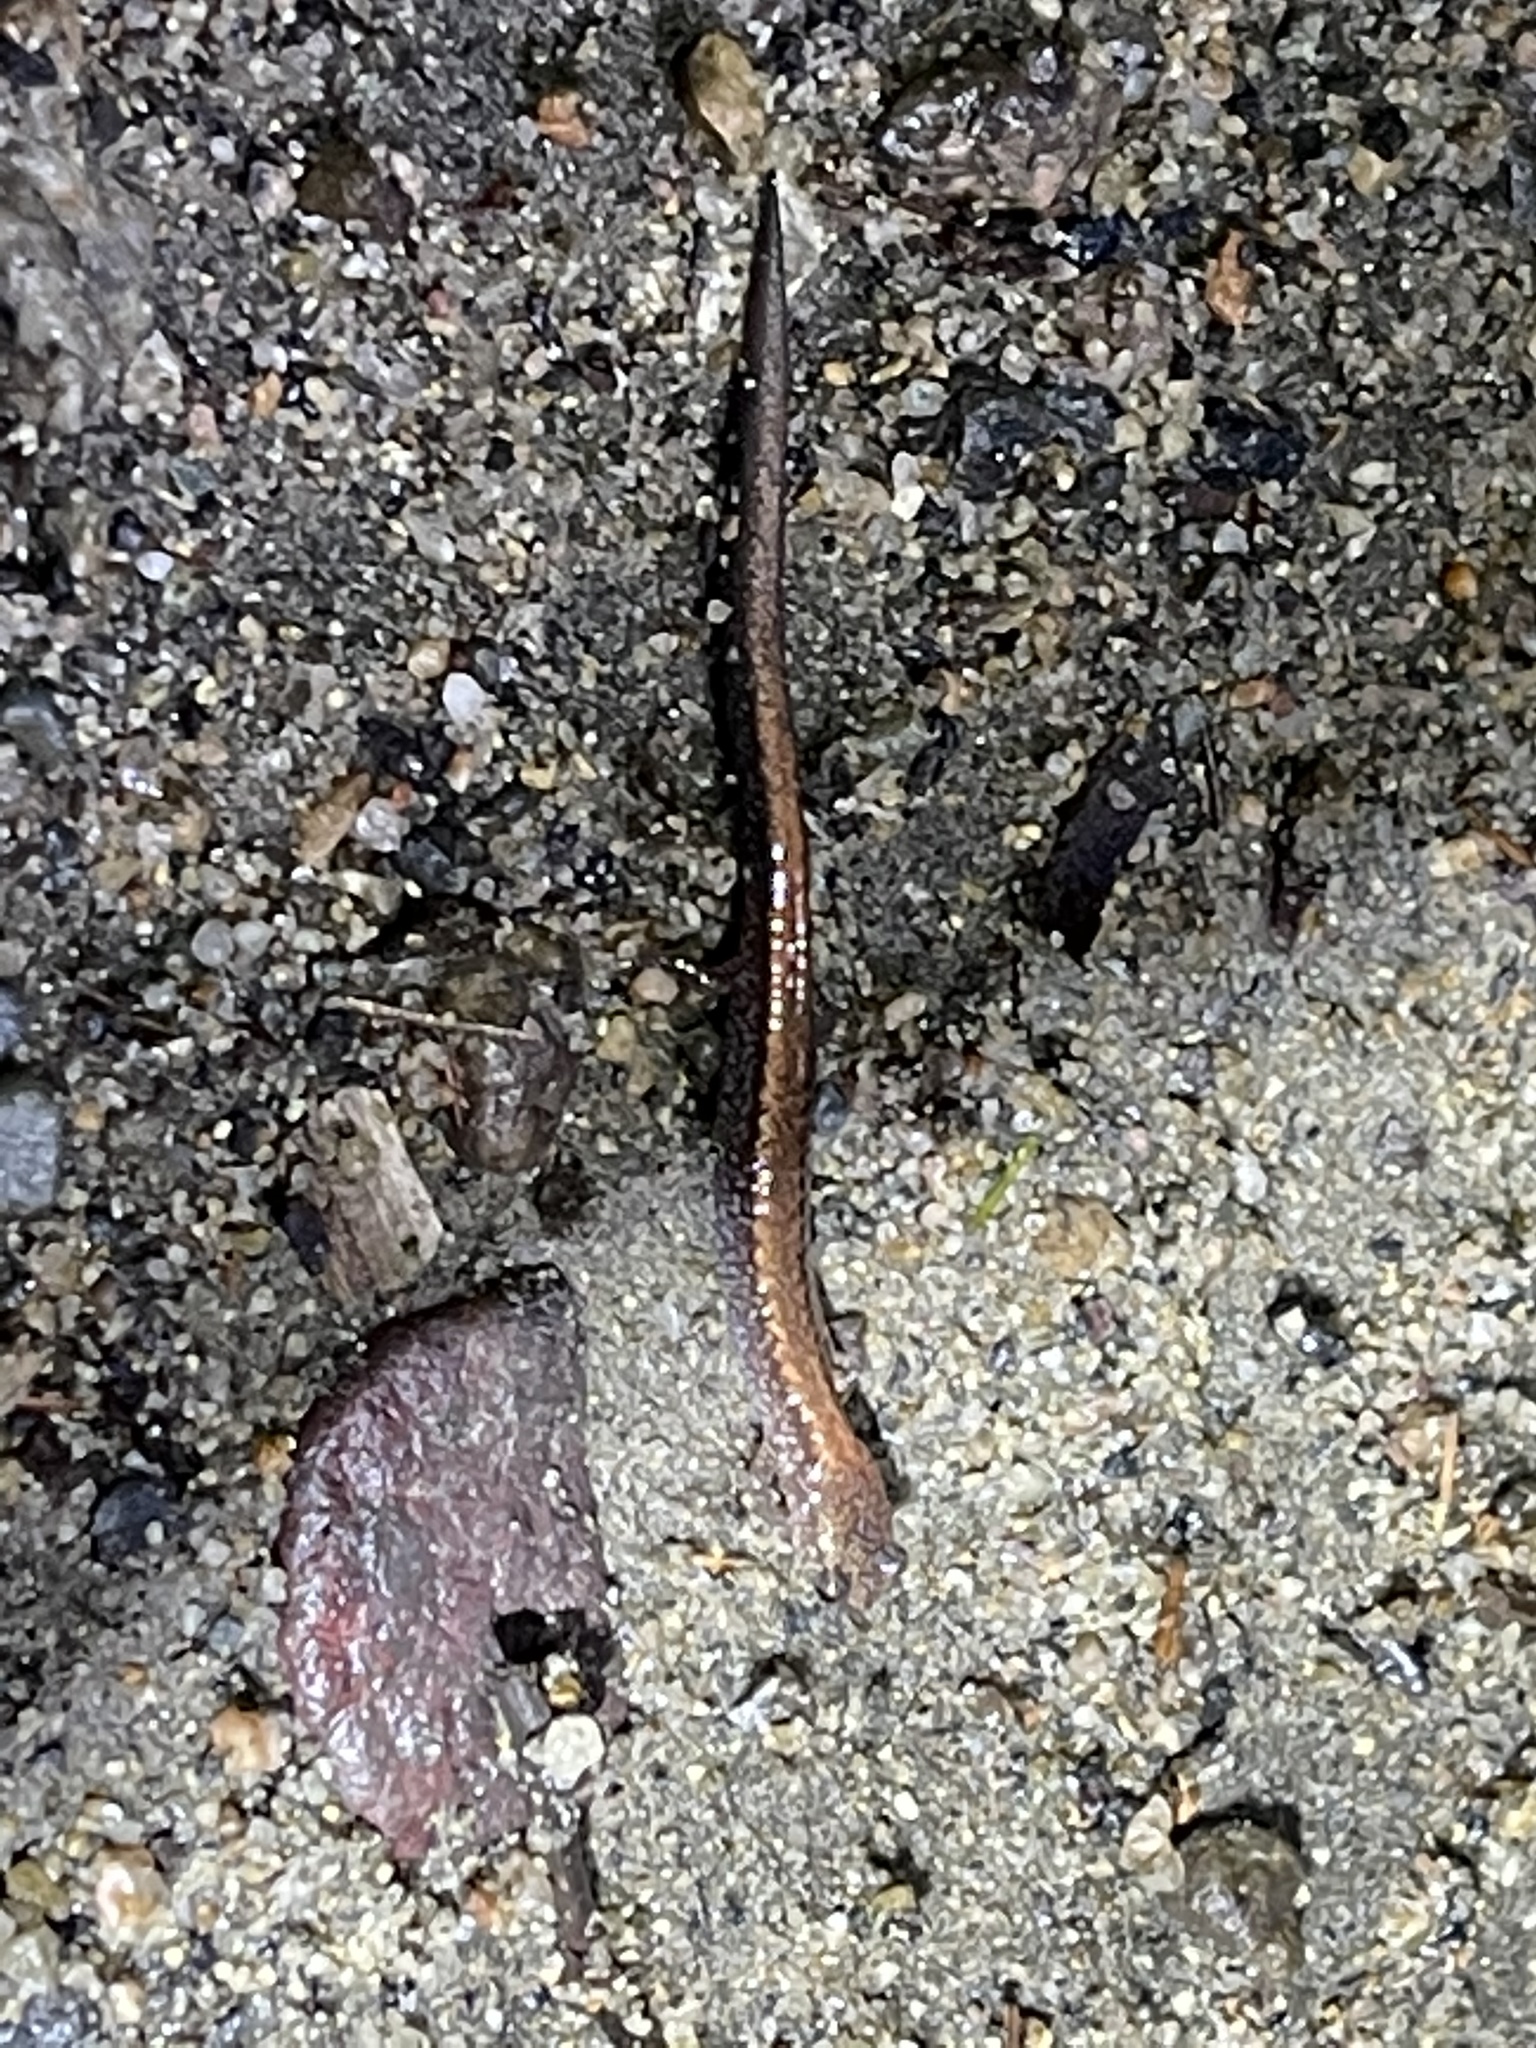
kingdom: Animalia
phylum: Chordata
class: Amphibia
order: Caudata
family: Plethodontidae
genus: Plethodon
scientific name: Plethodon cinereus
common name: Redback salamander
